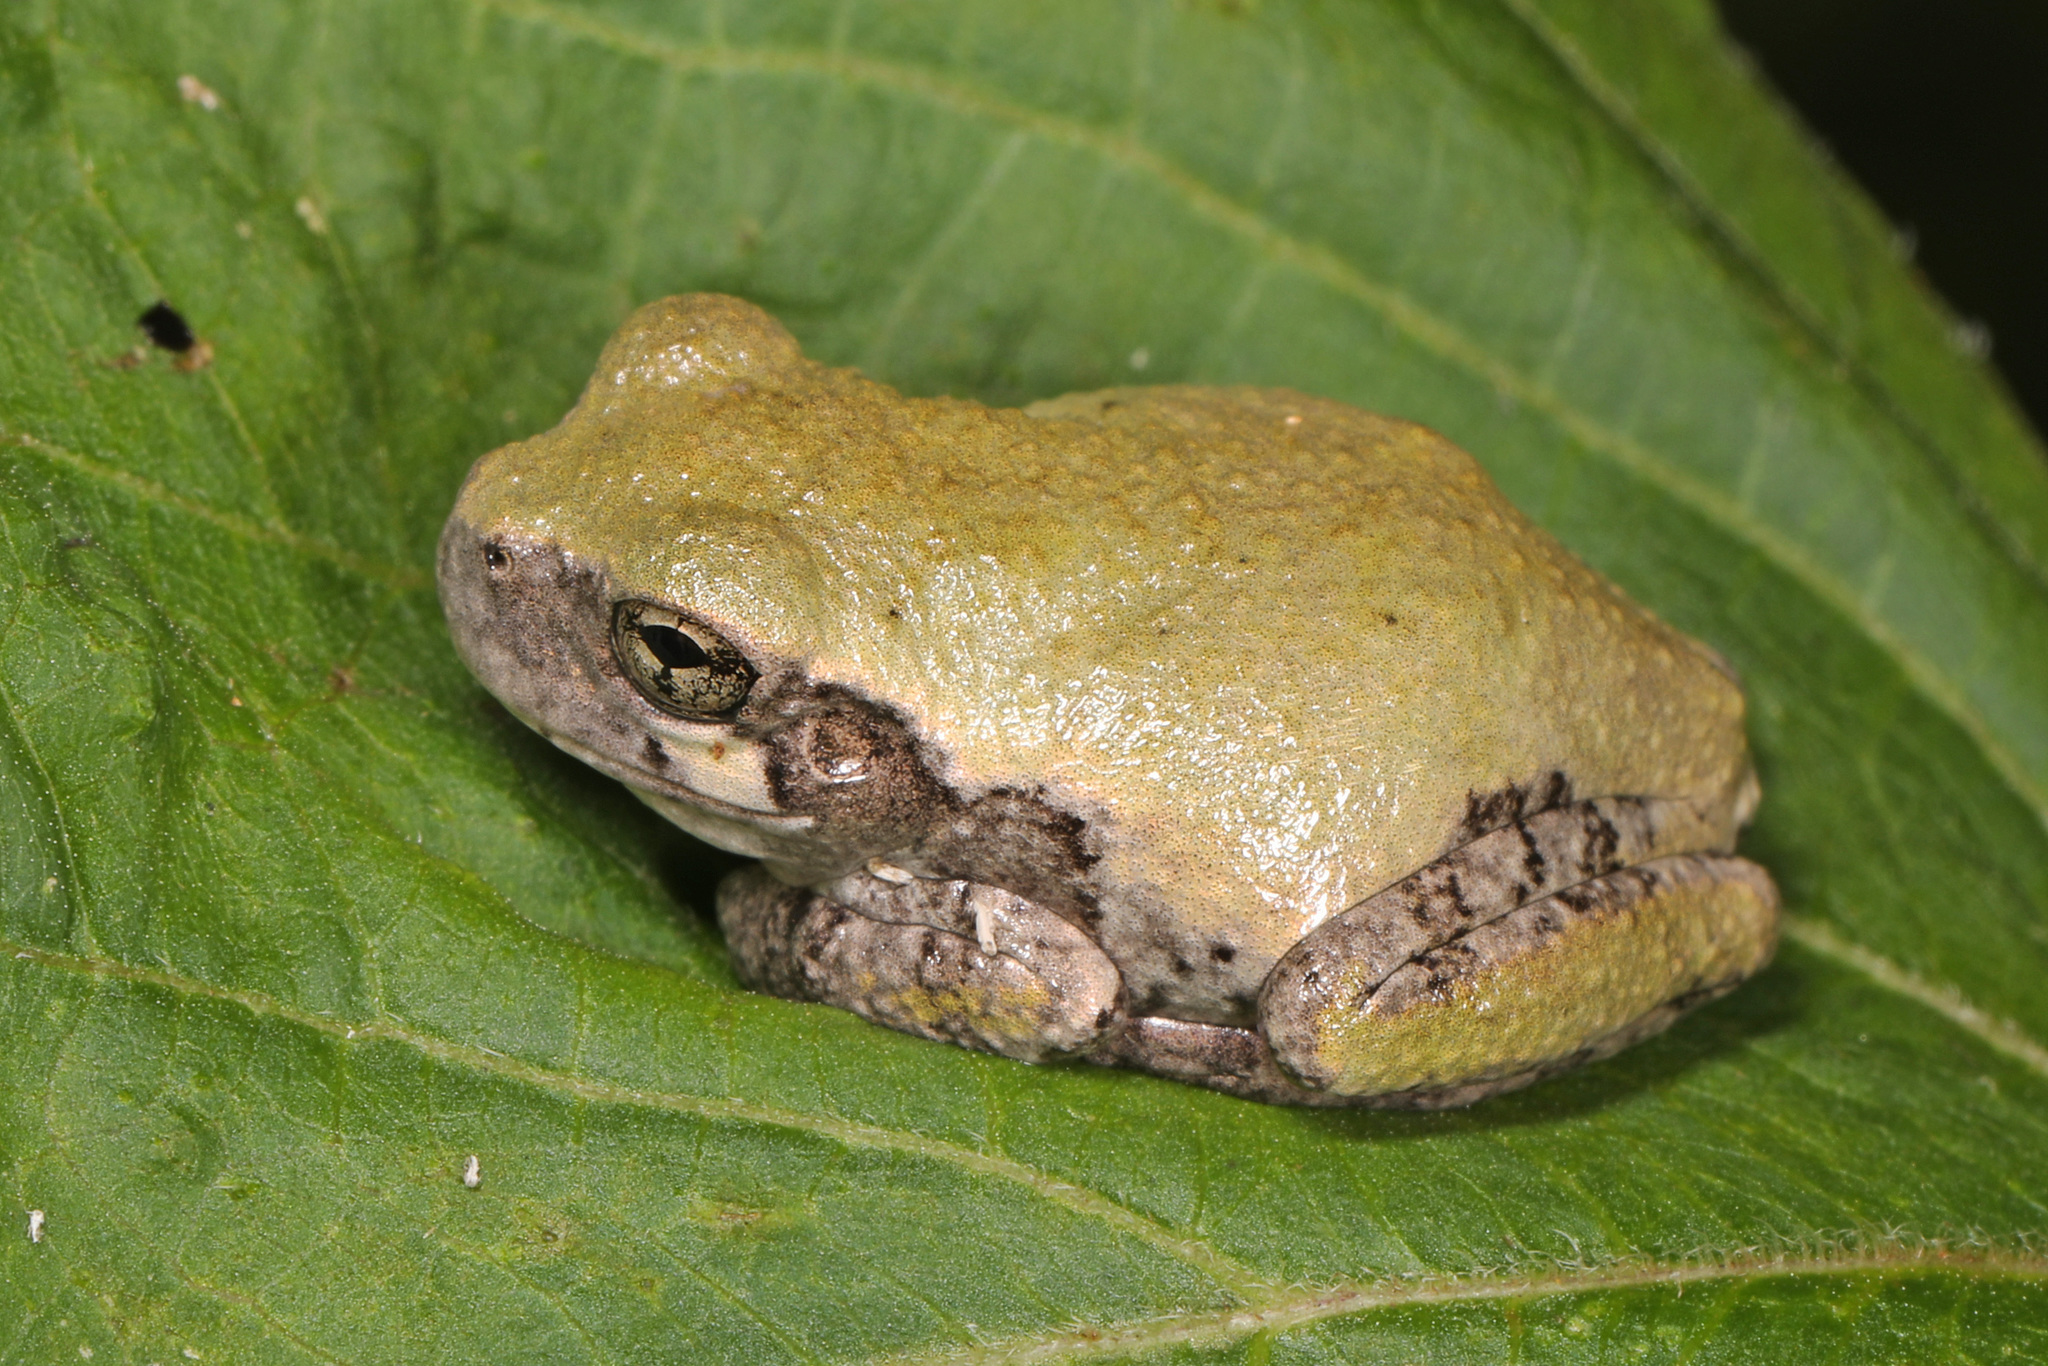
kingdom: Animalia
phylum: Chordata
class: Amphibia
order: Anura
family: Hylidae
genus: Hyla
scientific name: Hyla
